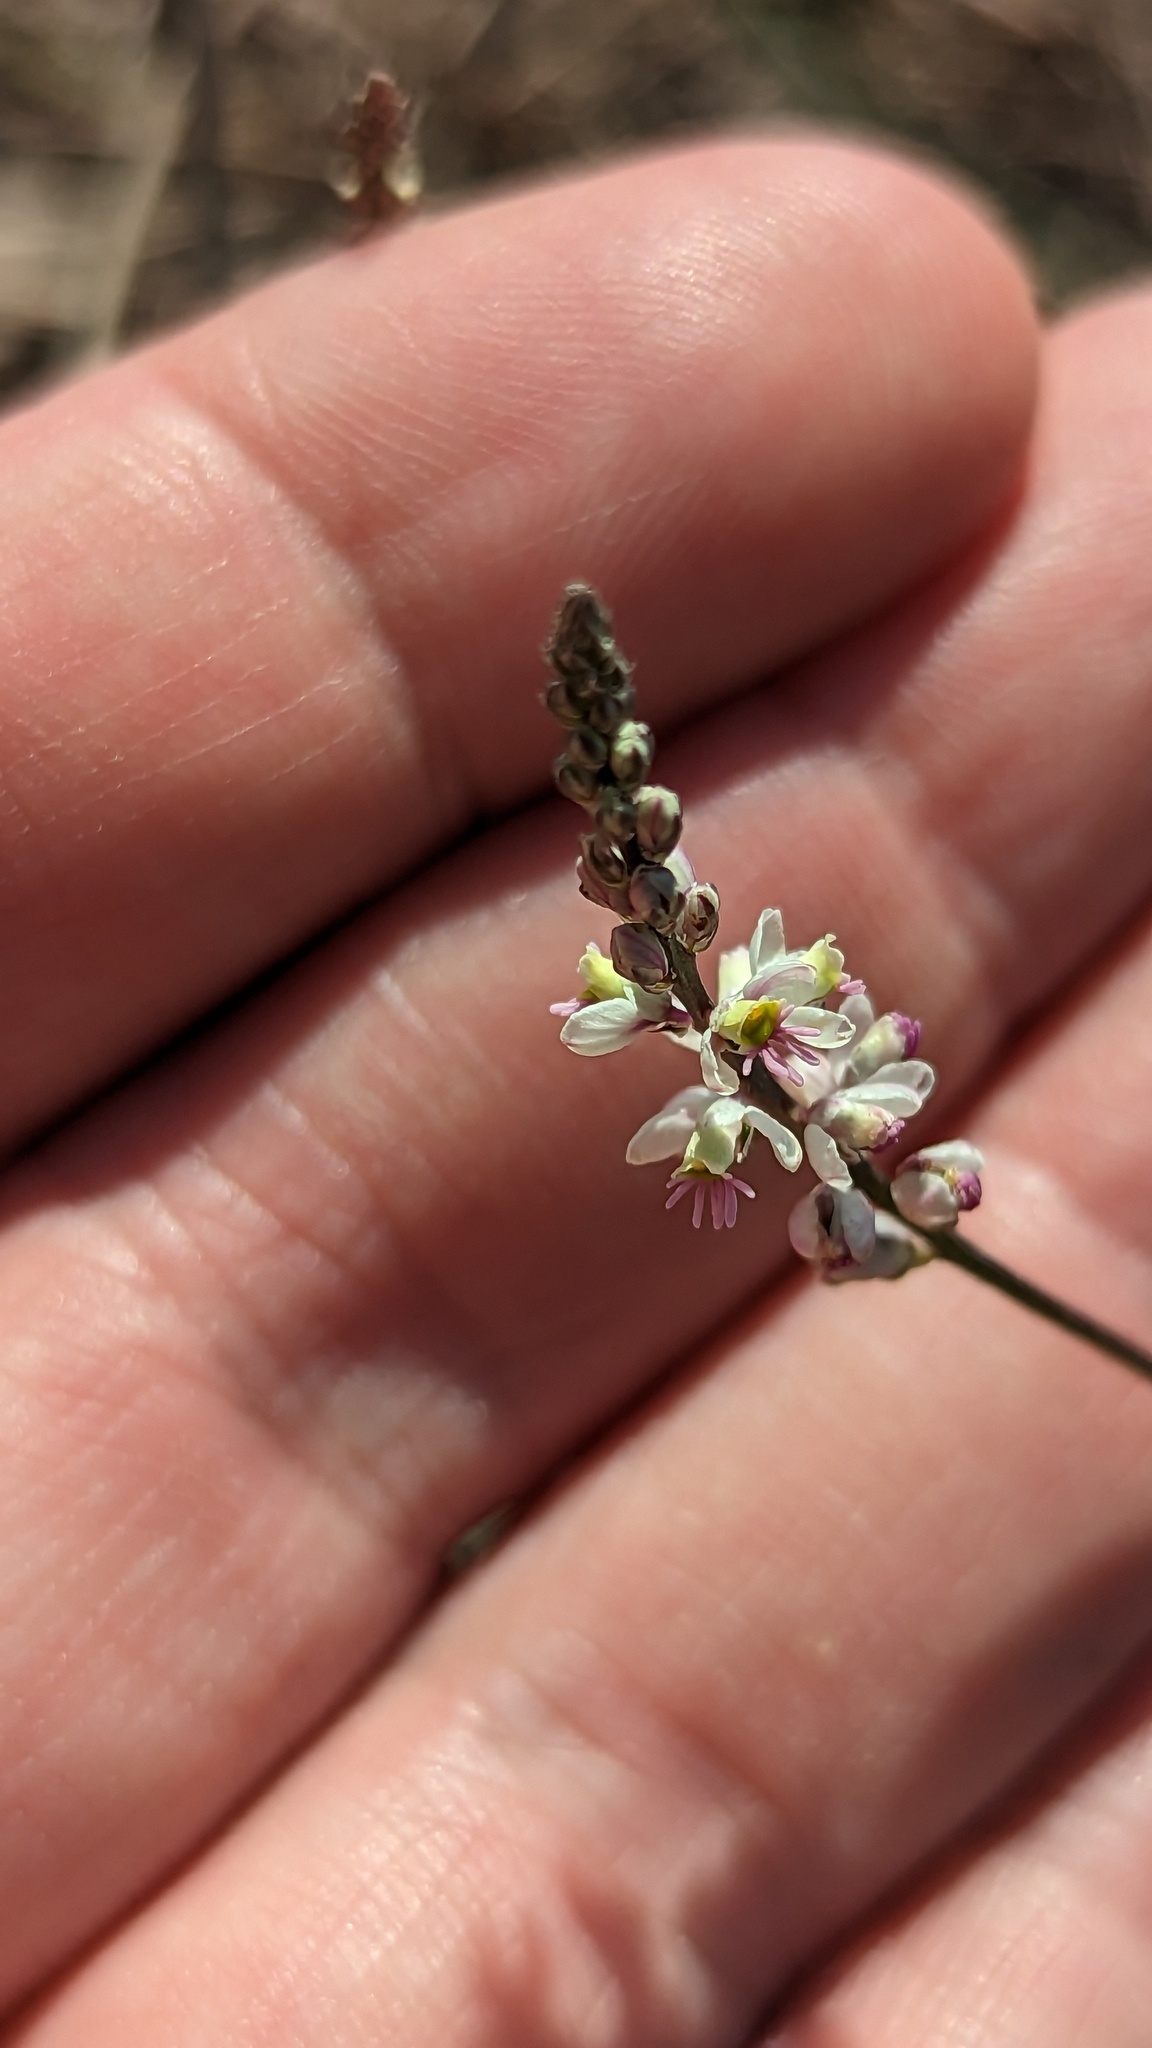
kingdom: Plantae
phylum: Tracheophyta
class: Magnoliopsida
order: Fabales
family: Polygalaceae
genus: Polygala
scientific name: Polygala alba
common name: White milkwort
